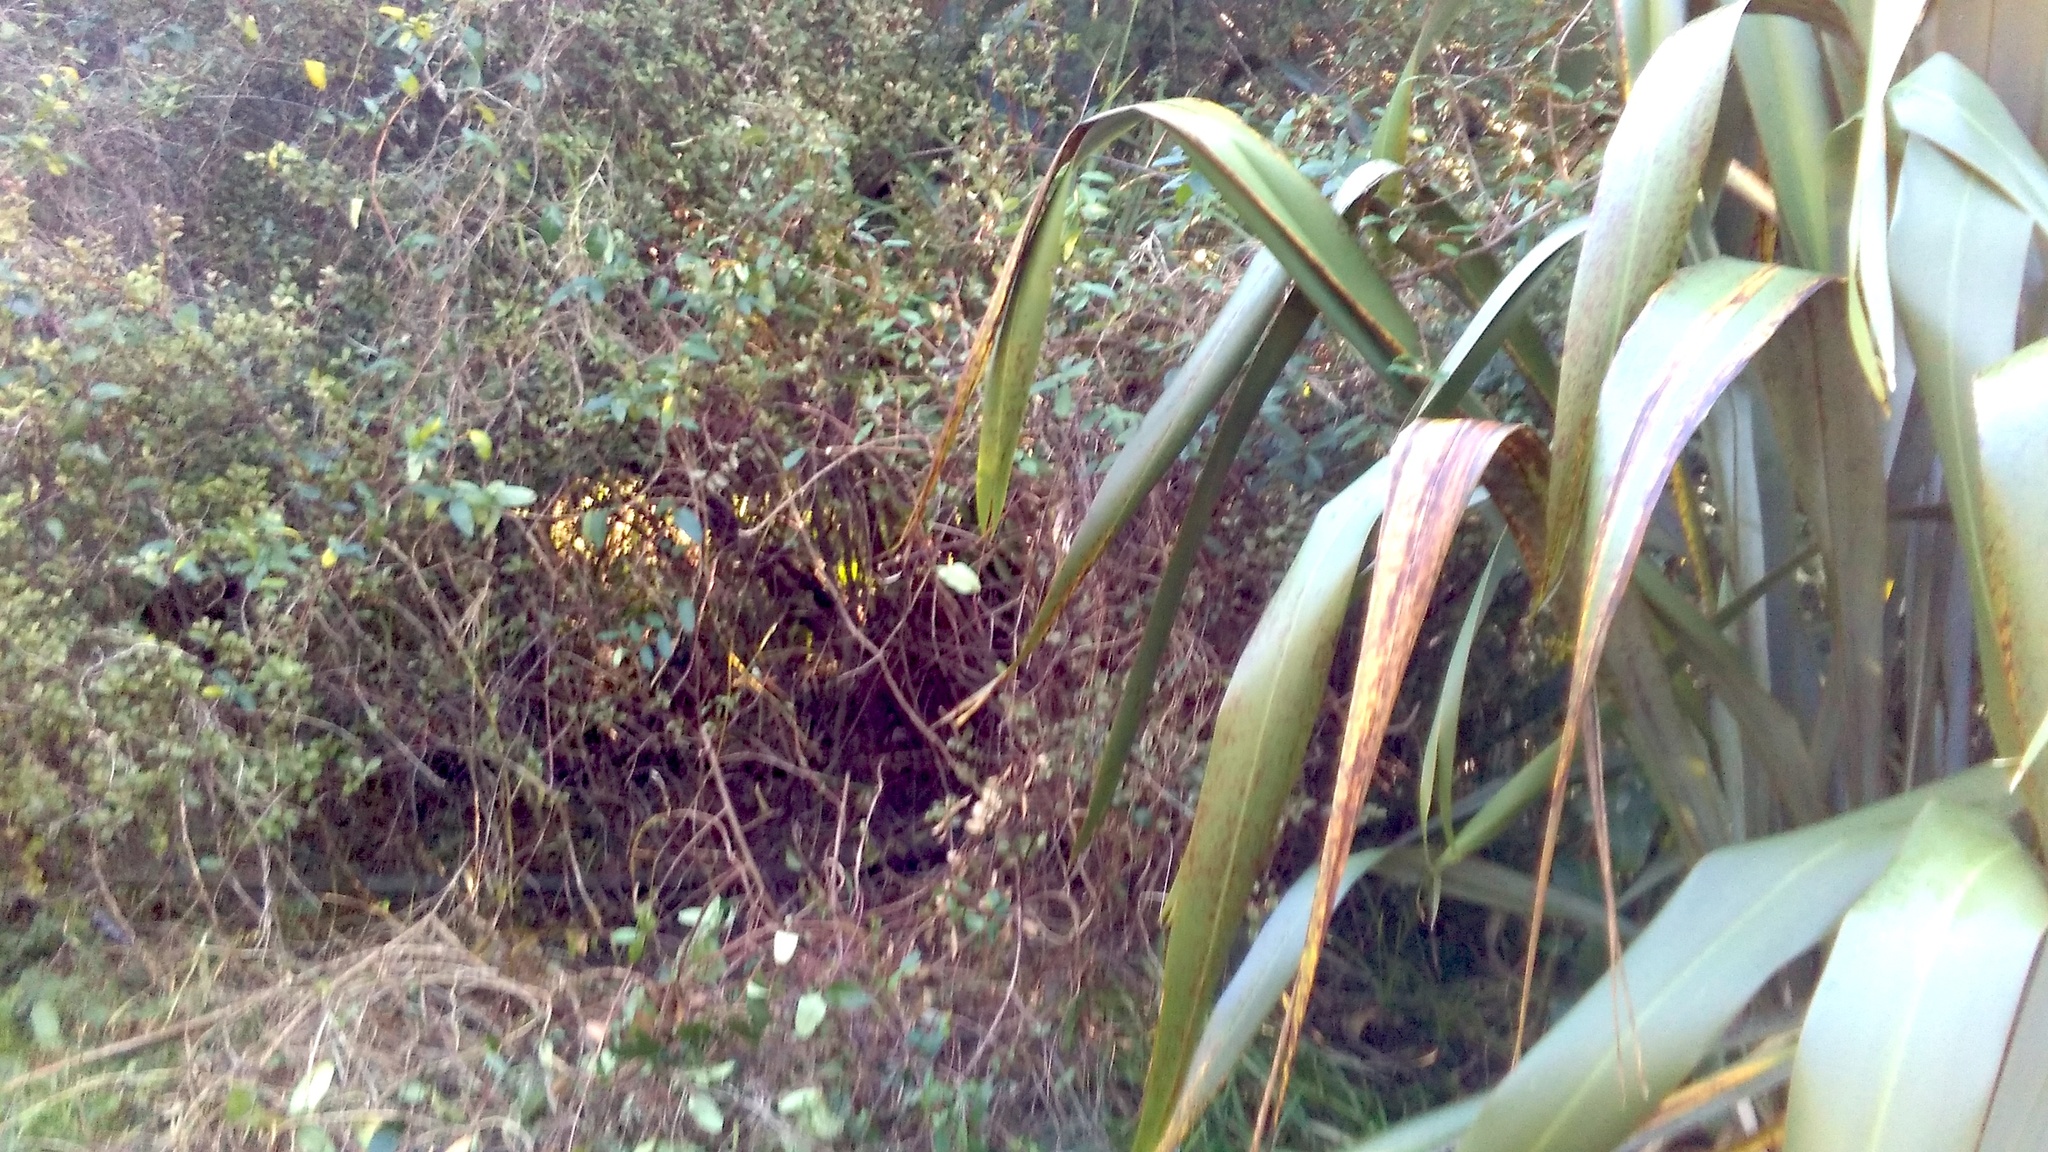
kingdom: Plantae
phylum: Tracheophyta
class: Magnoliopsida
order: Ericales
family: Primulaceae
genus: Myrsine
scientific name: Myrsine australis
